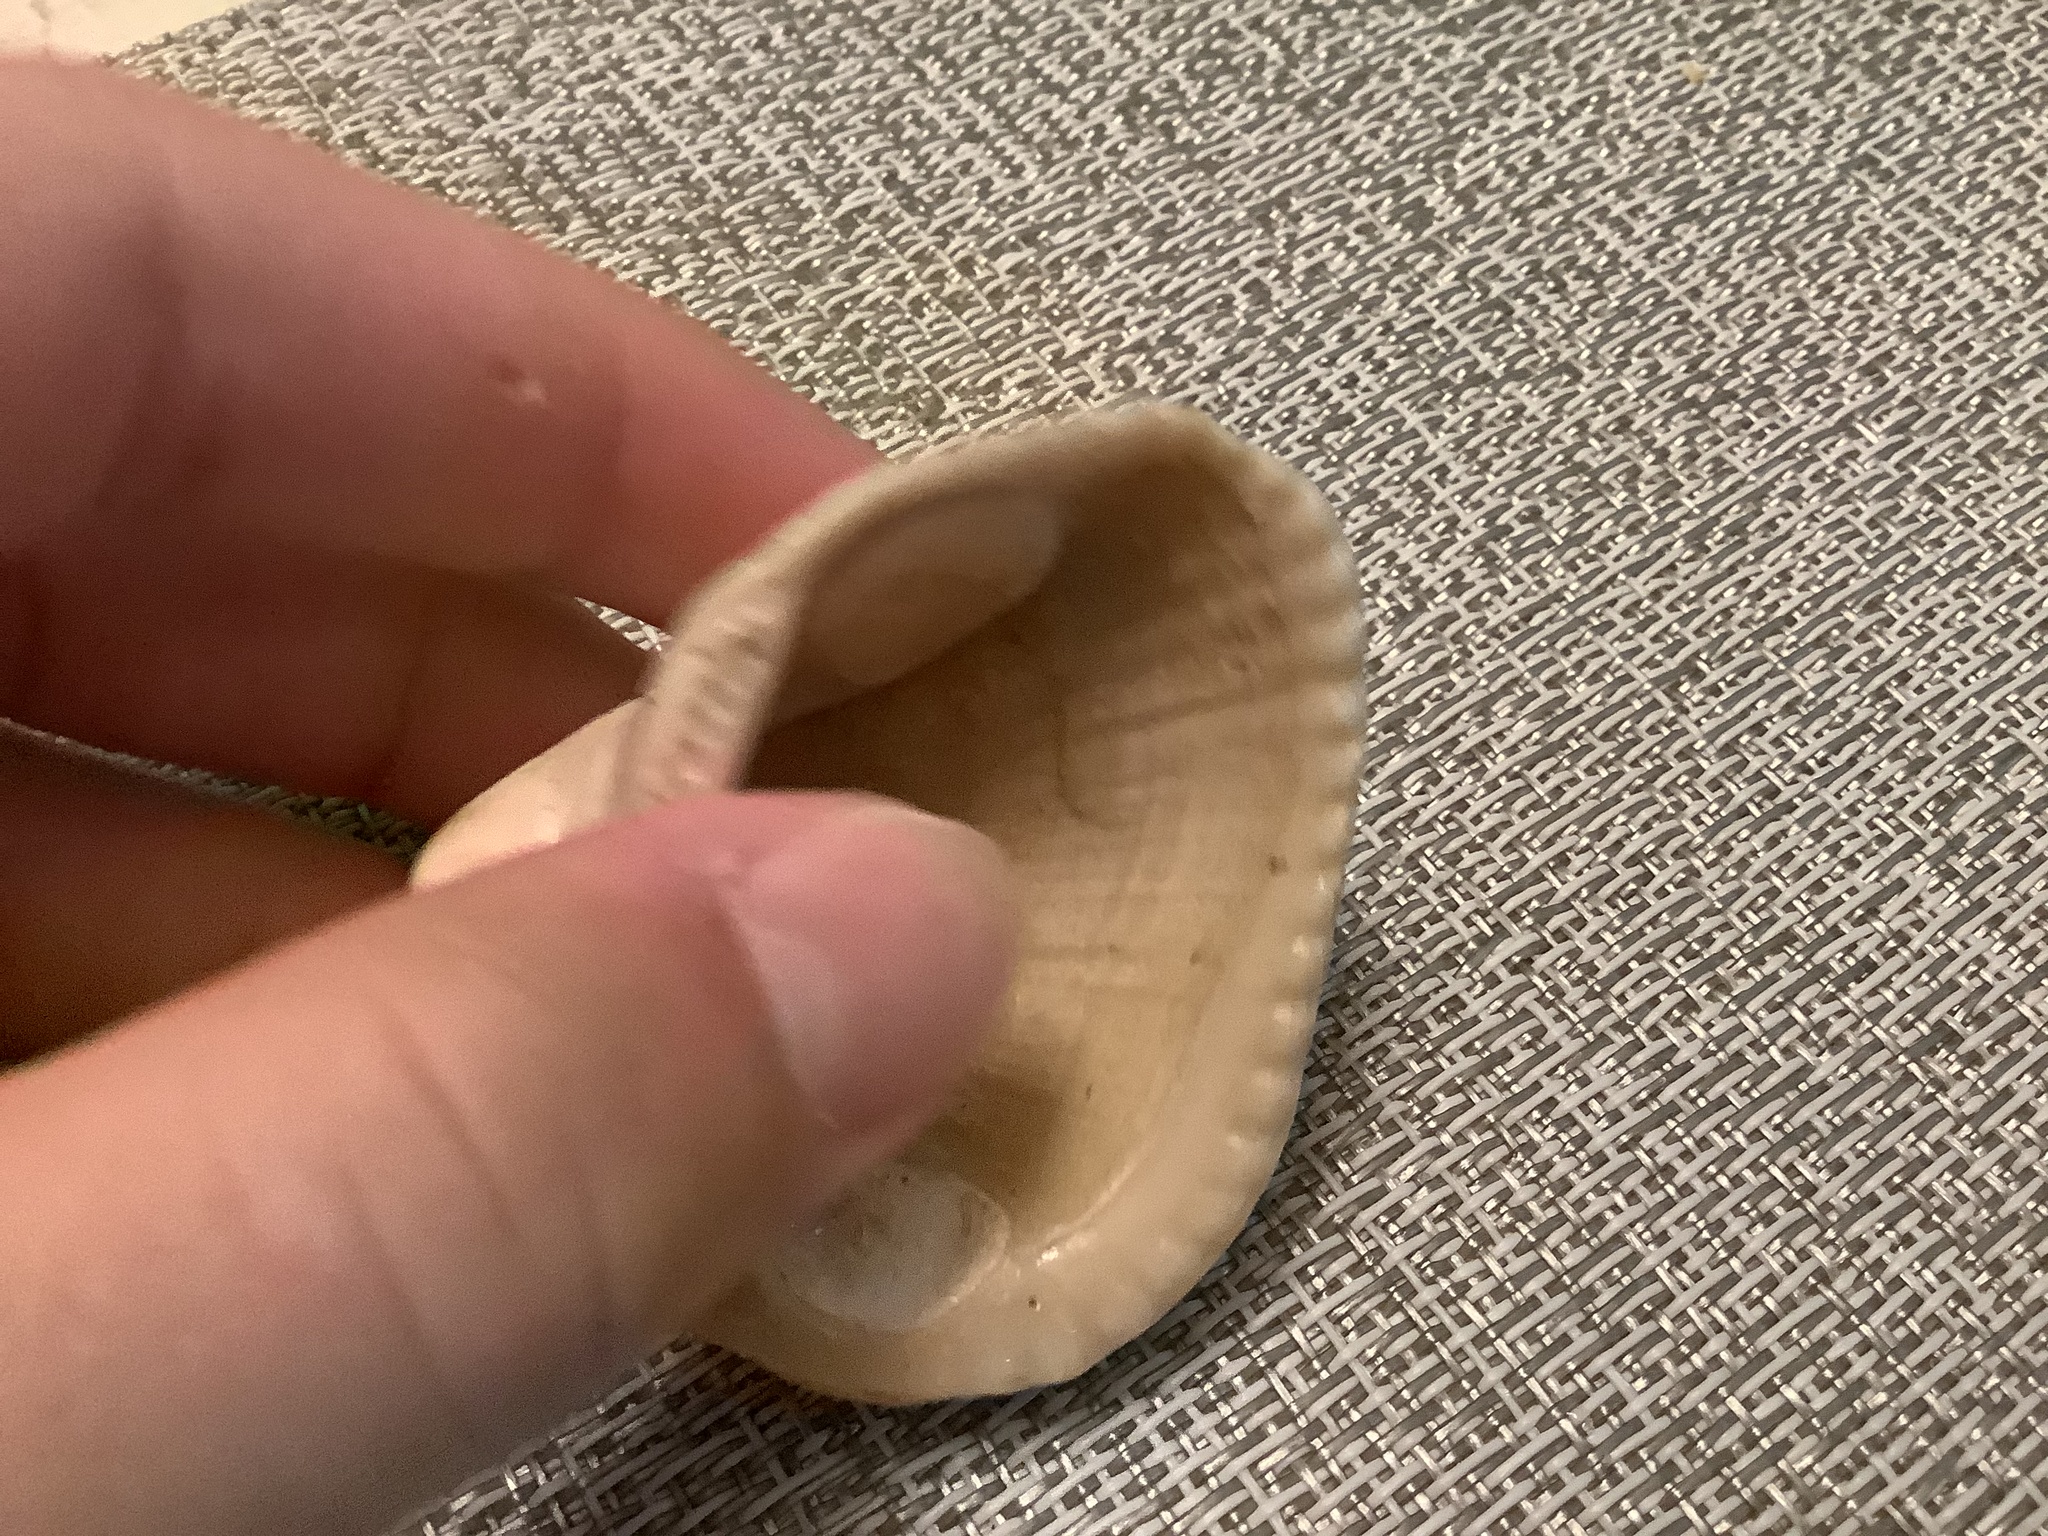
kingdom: Animalia
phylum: Mollusca
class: Bivalvia
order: Arcida
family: Noetiidae
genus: Noetia
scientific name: Noetia ponderosa
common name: Ponderous ark
